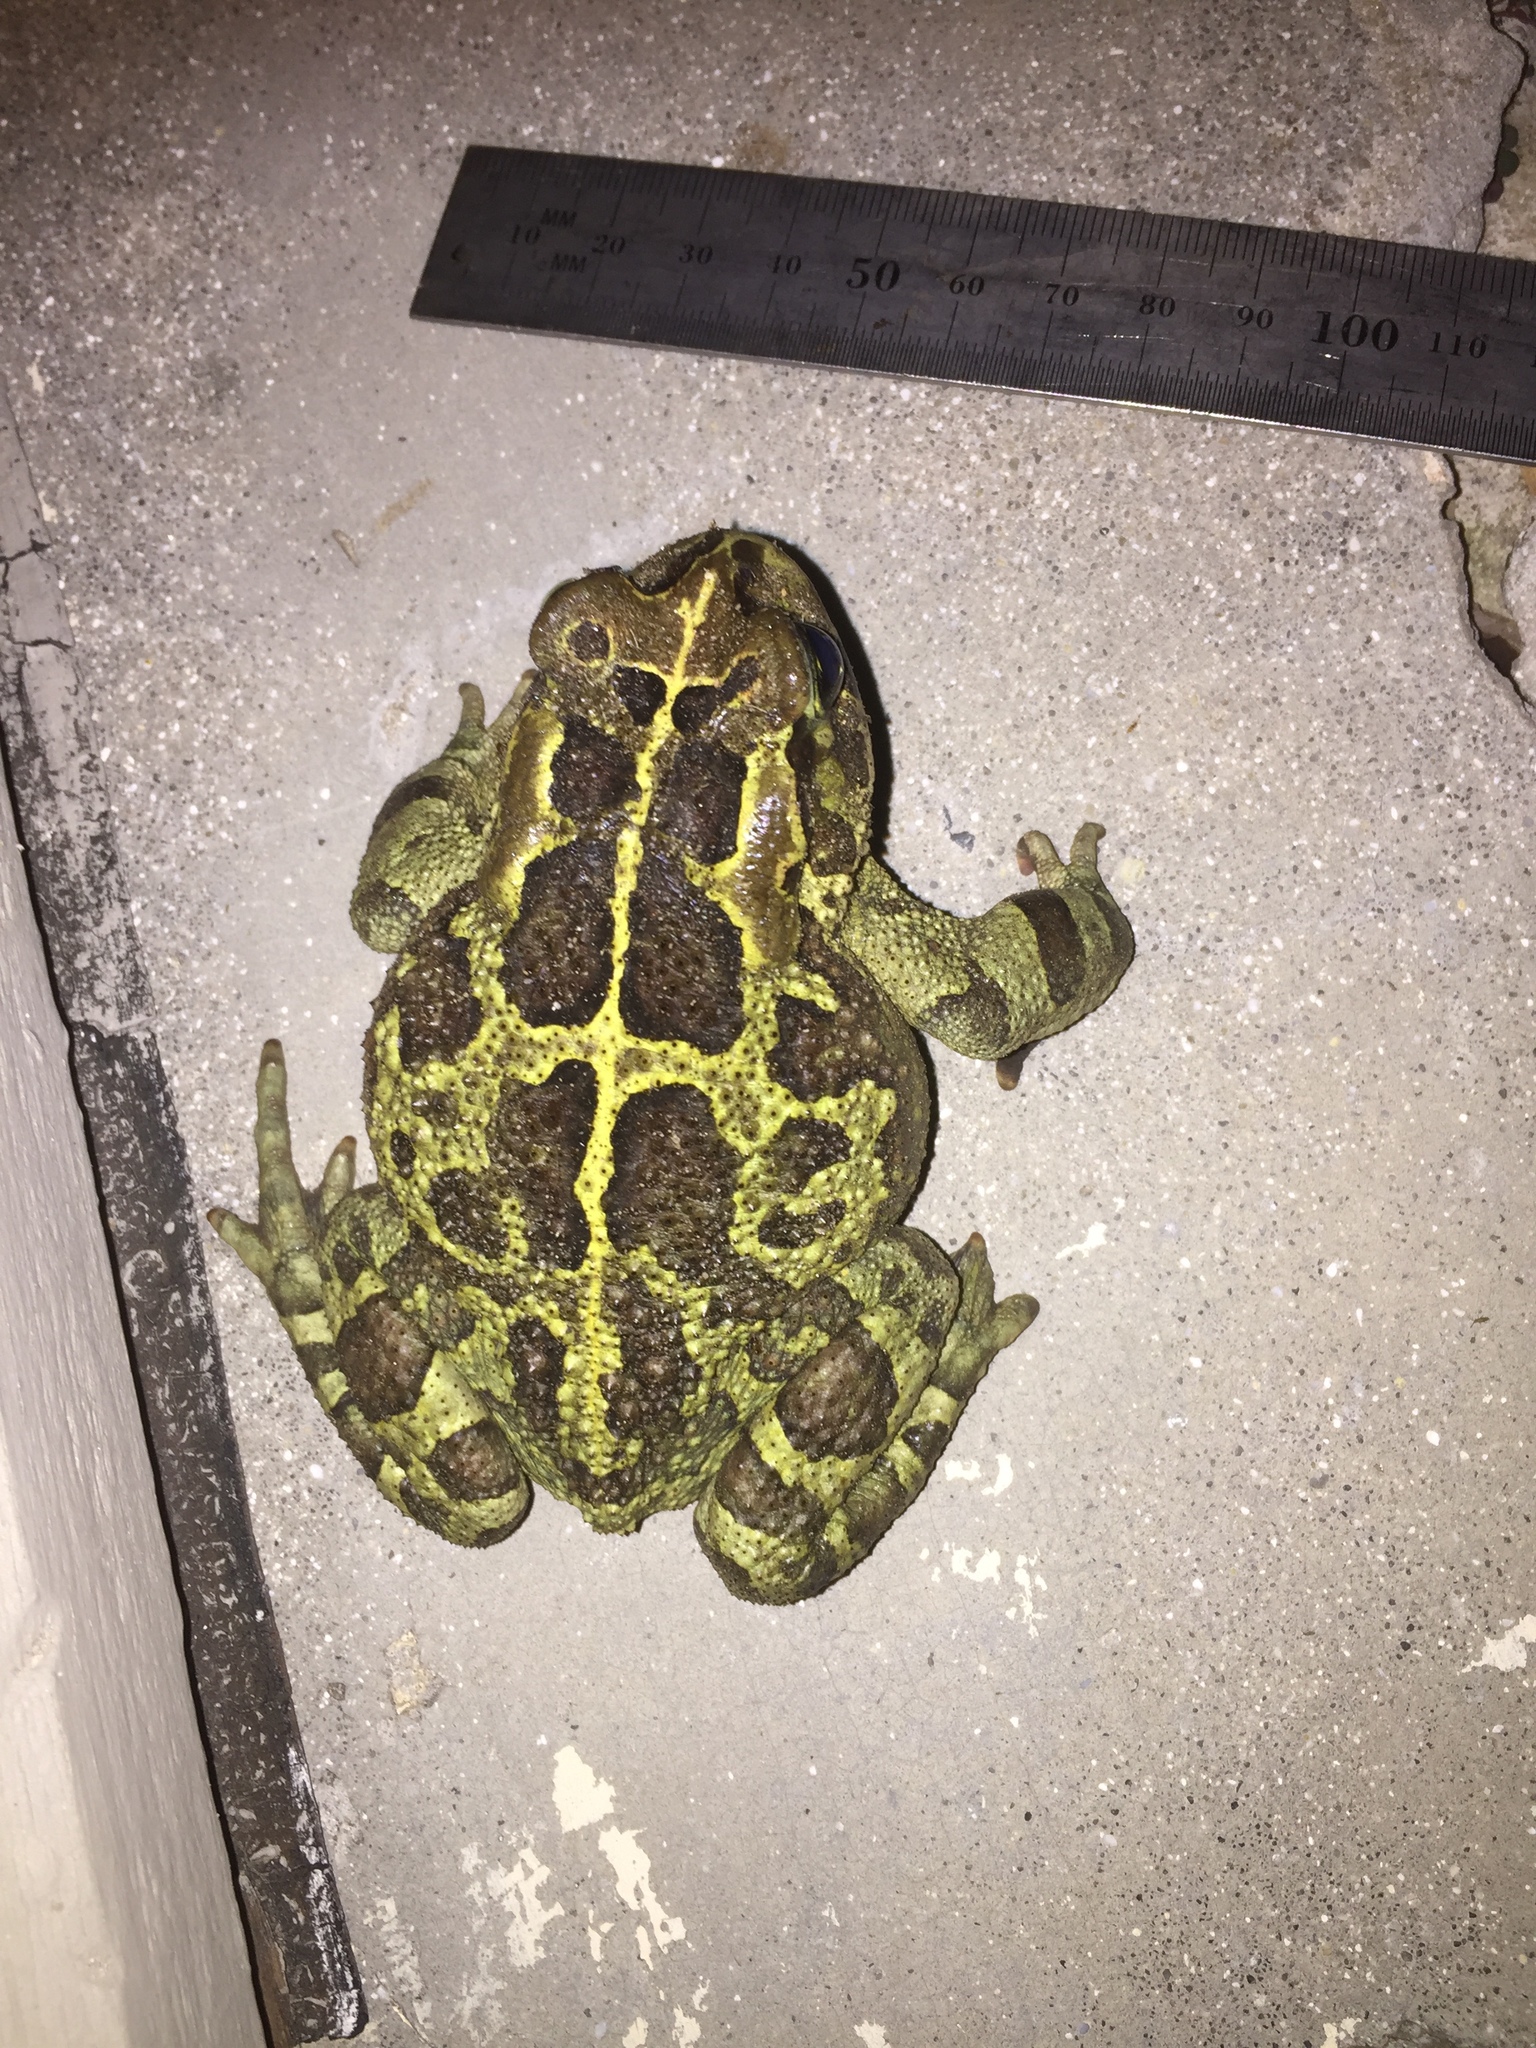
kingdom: Animalia
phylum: Chordata
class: Amphibia
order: Anura
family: Bufonidae
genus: Sclerophrys
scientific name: Sclerophrys pantherina
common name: Panther toad
